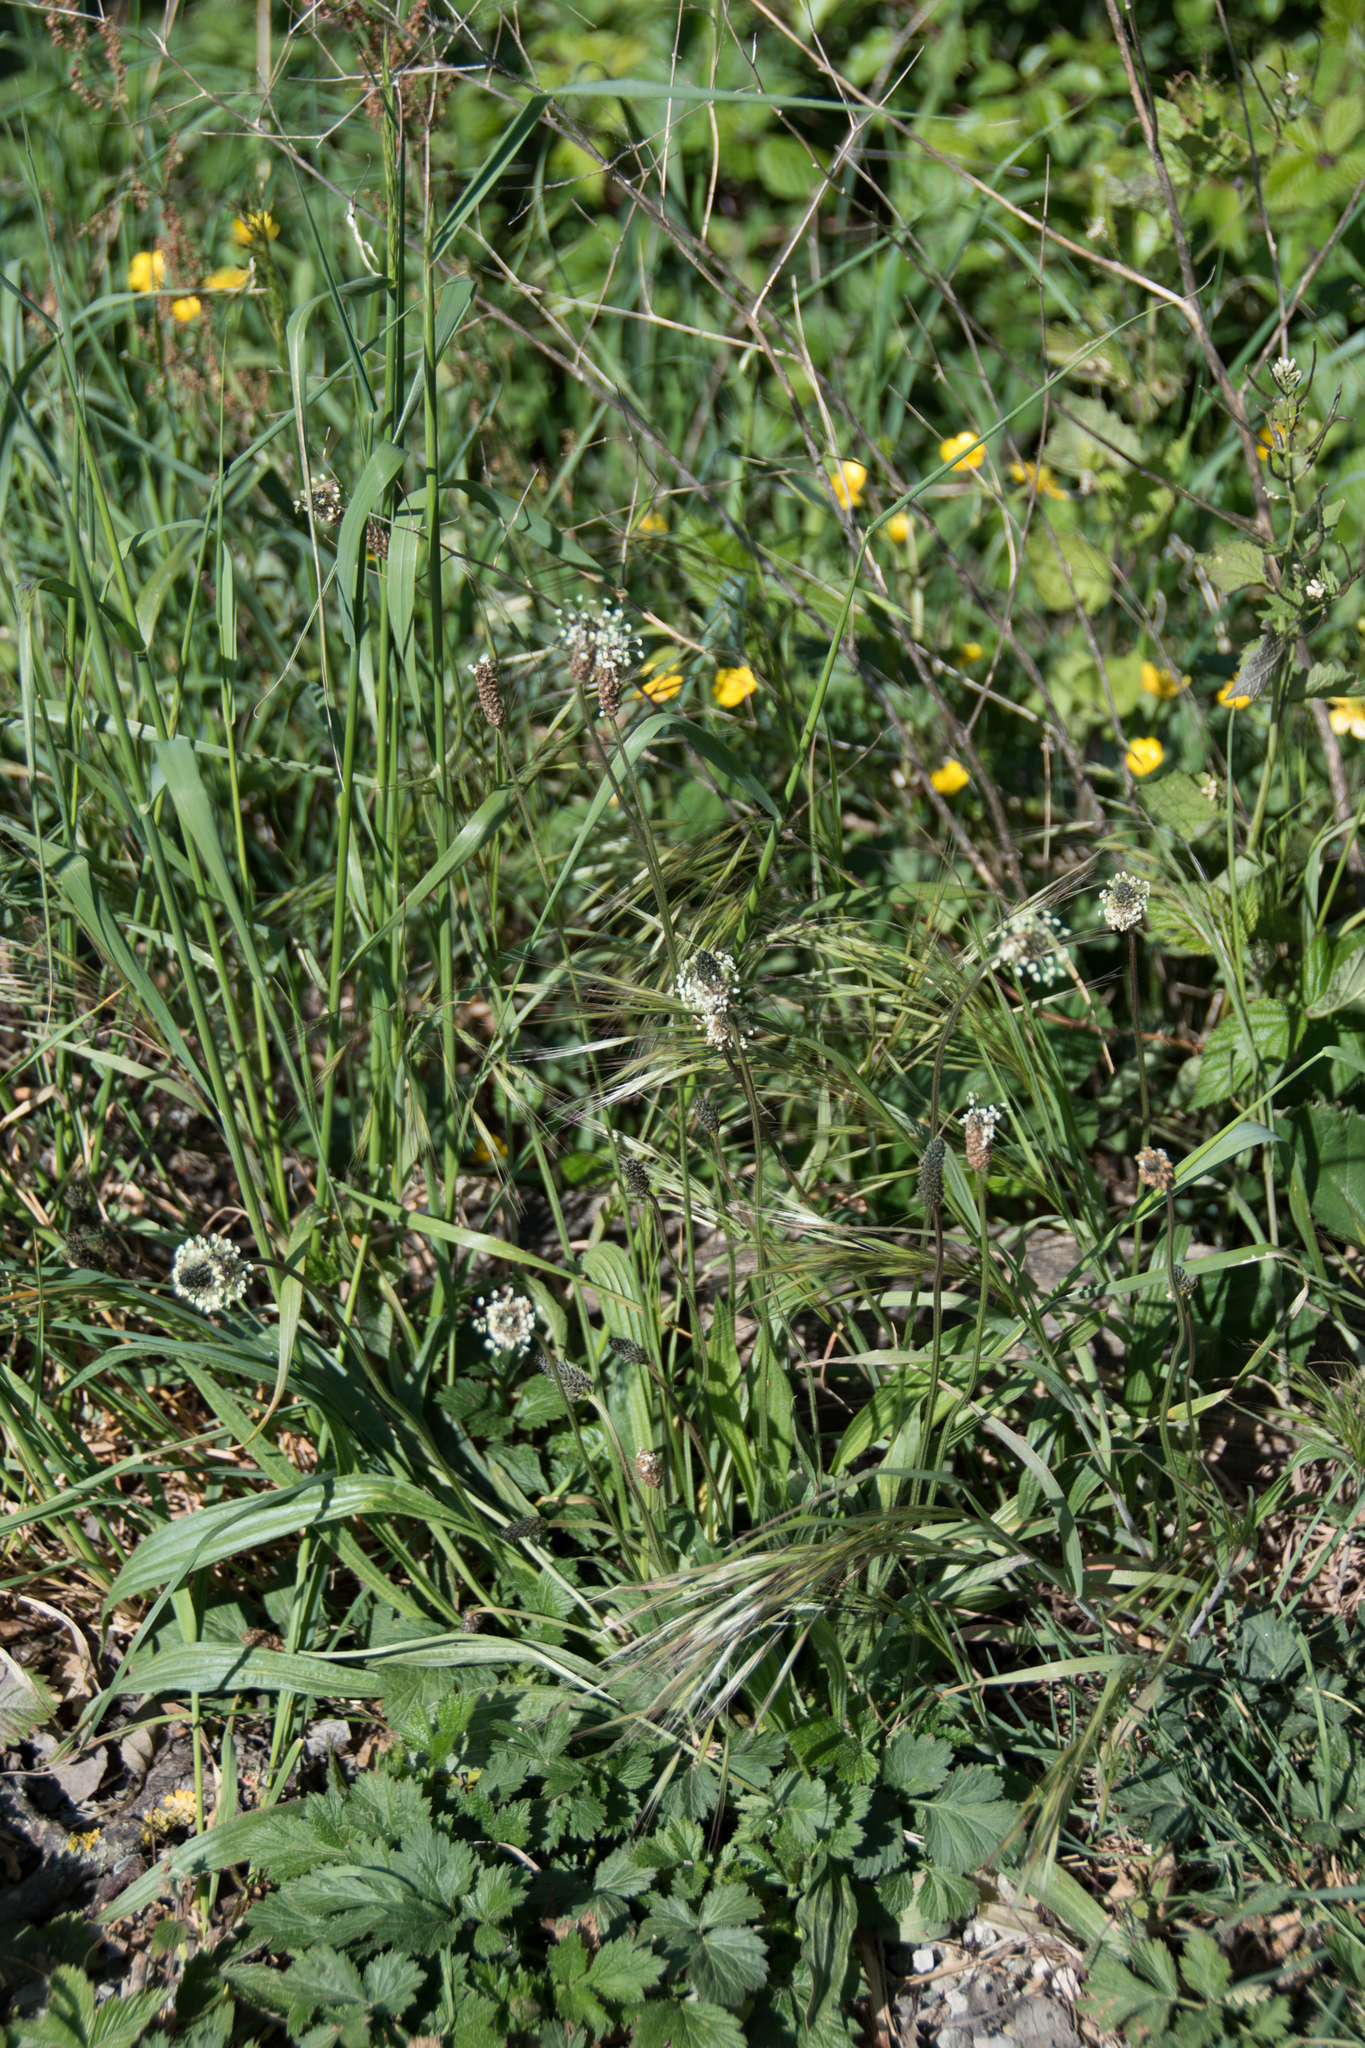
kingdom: Plantae
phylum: Tracheophyta
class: Magnoliopsida
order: Lamiales
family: Plantaginaceae
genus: Plantago
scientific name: Plantago lanceolata
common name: Ribwort plantain
